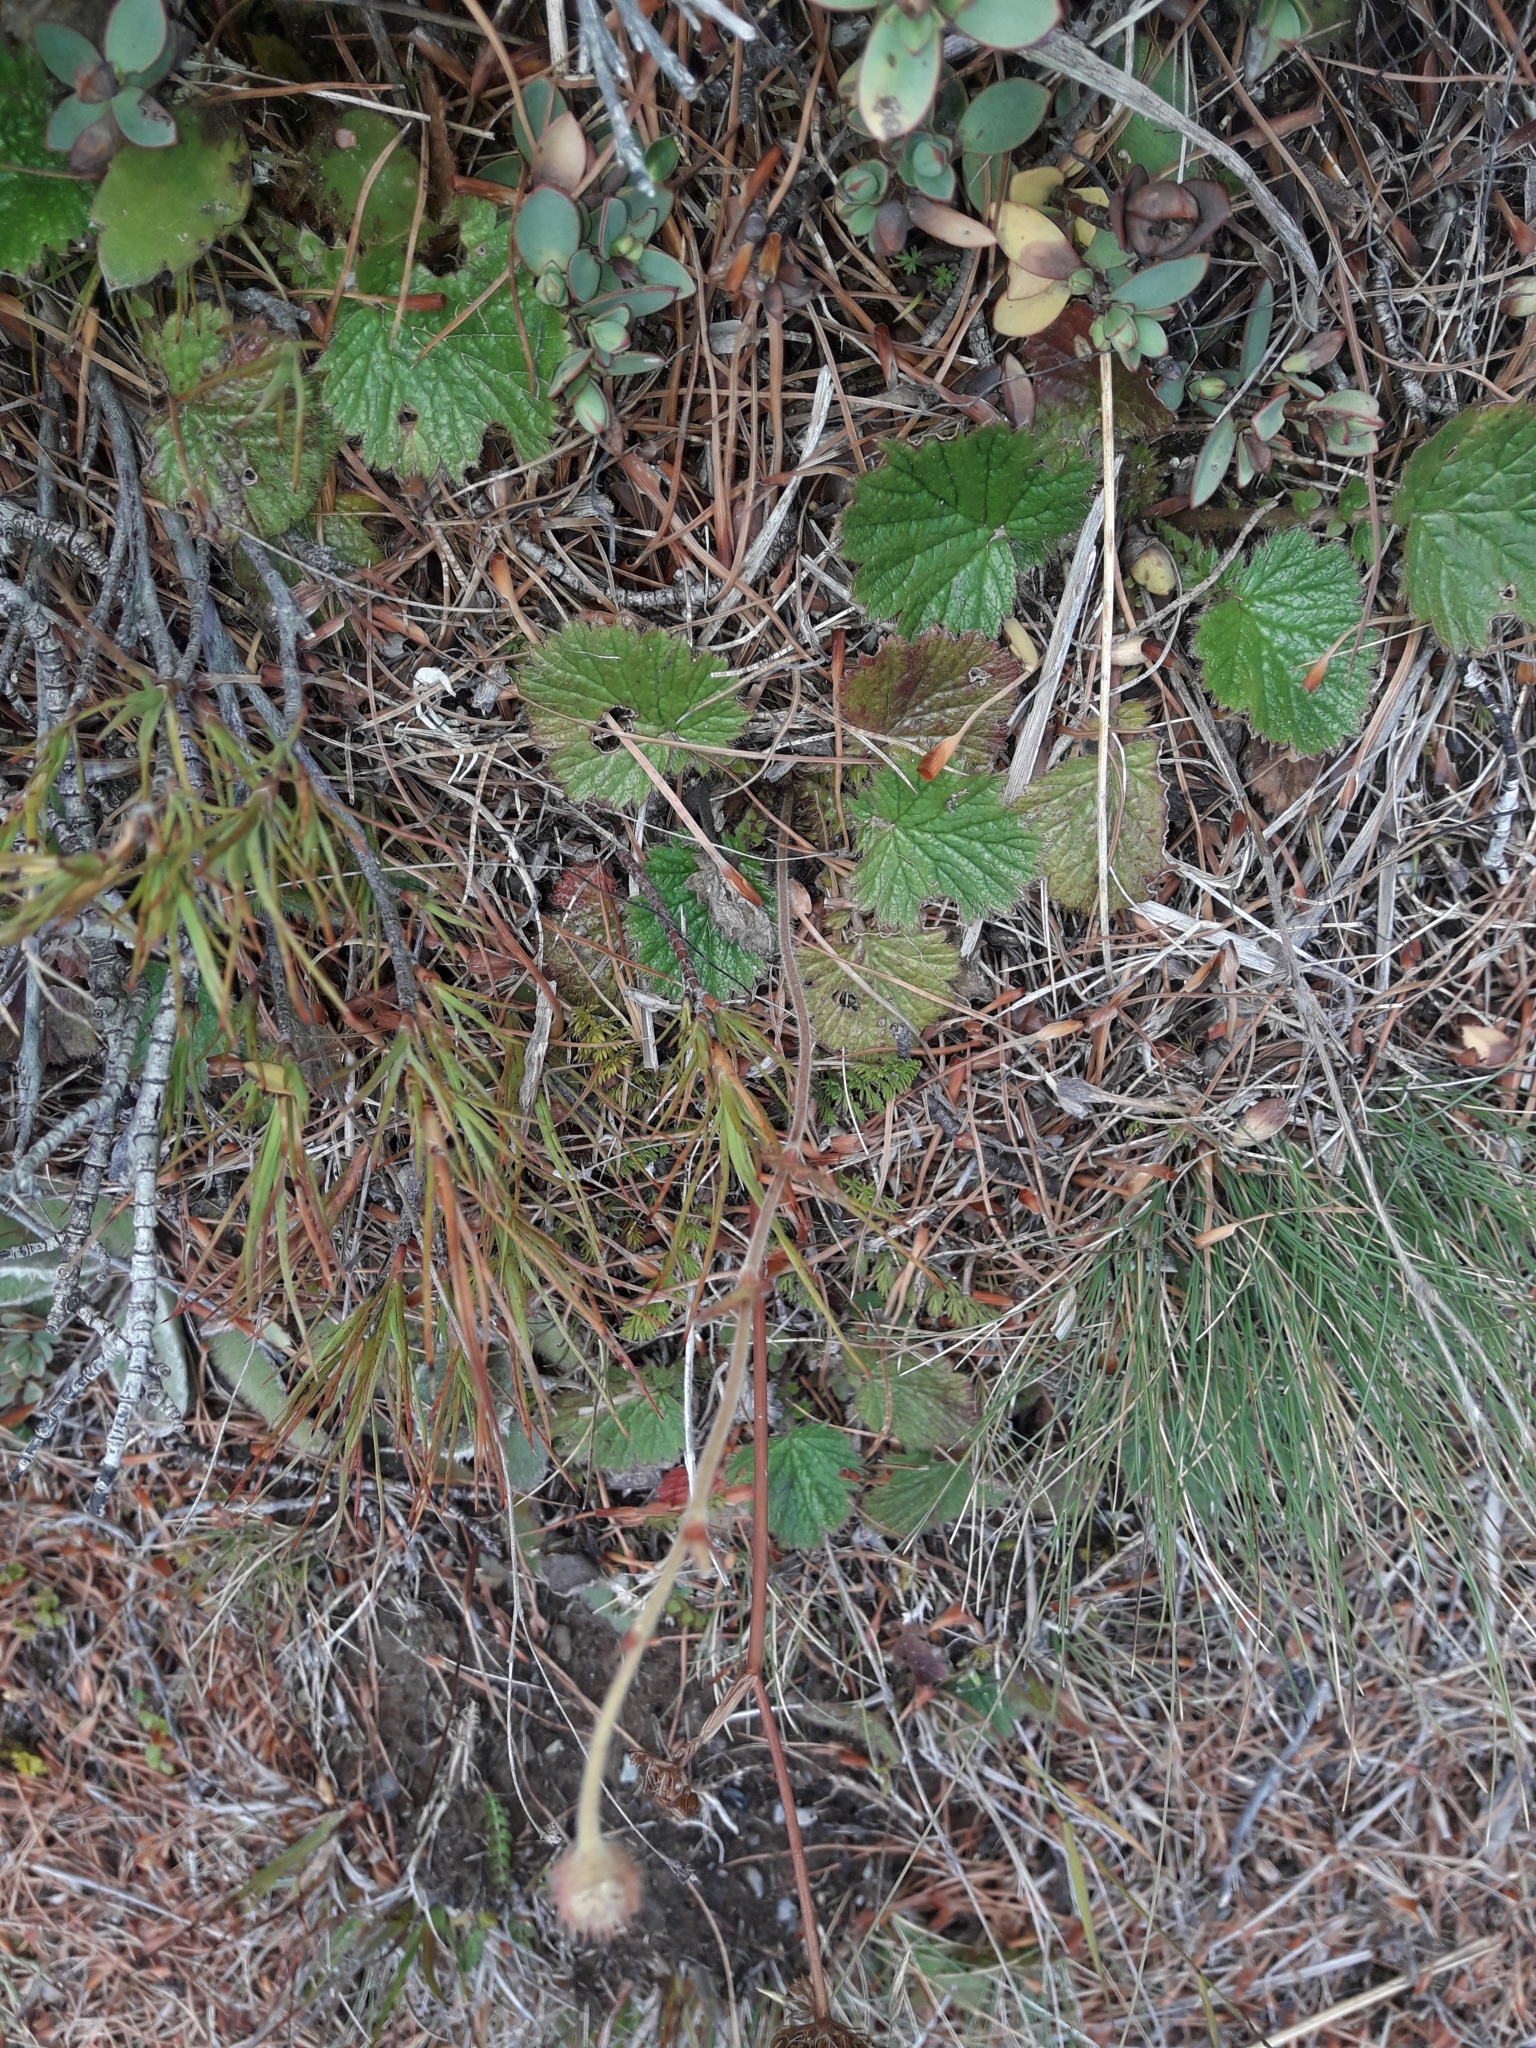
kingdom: Plantae
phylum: Tracheophyta
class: Magnoliopsida
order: Rosales
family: Rosaceae
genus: Geum
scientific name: Geum cockaynei
